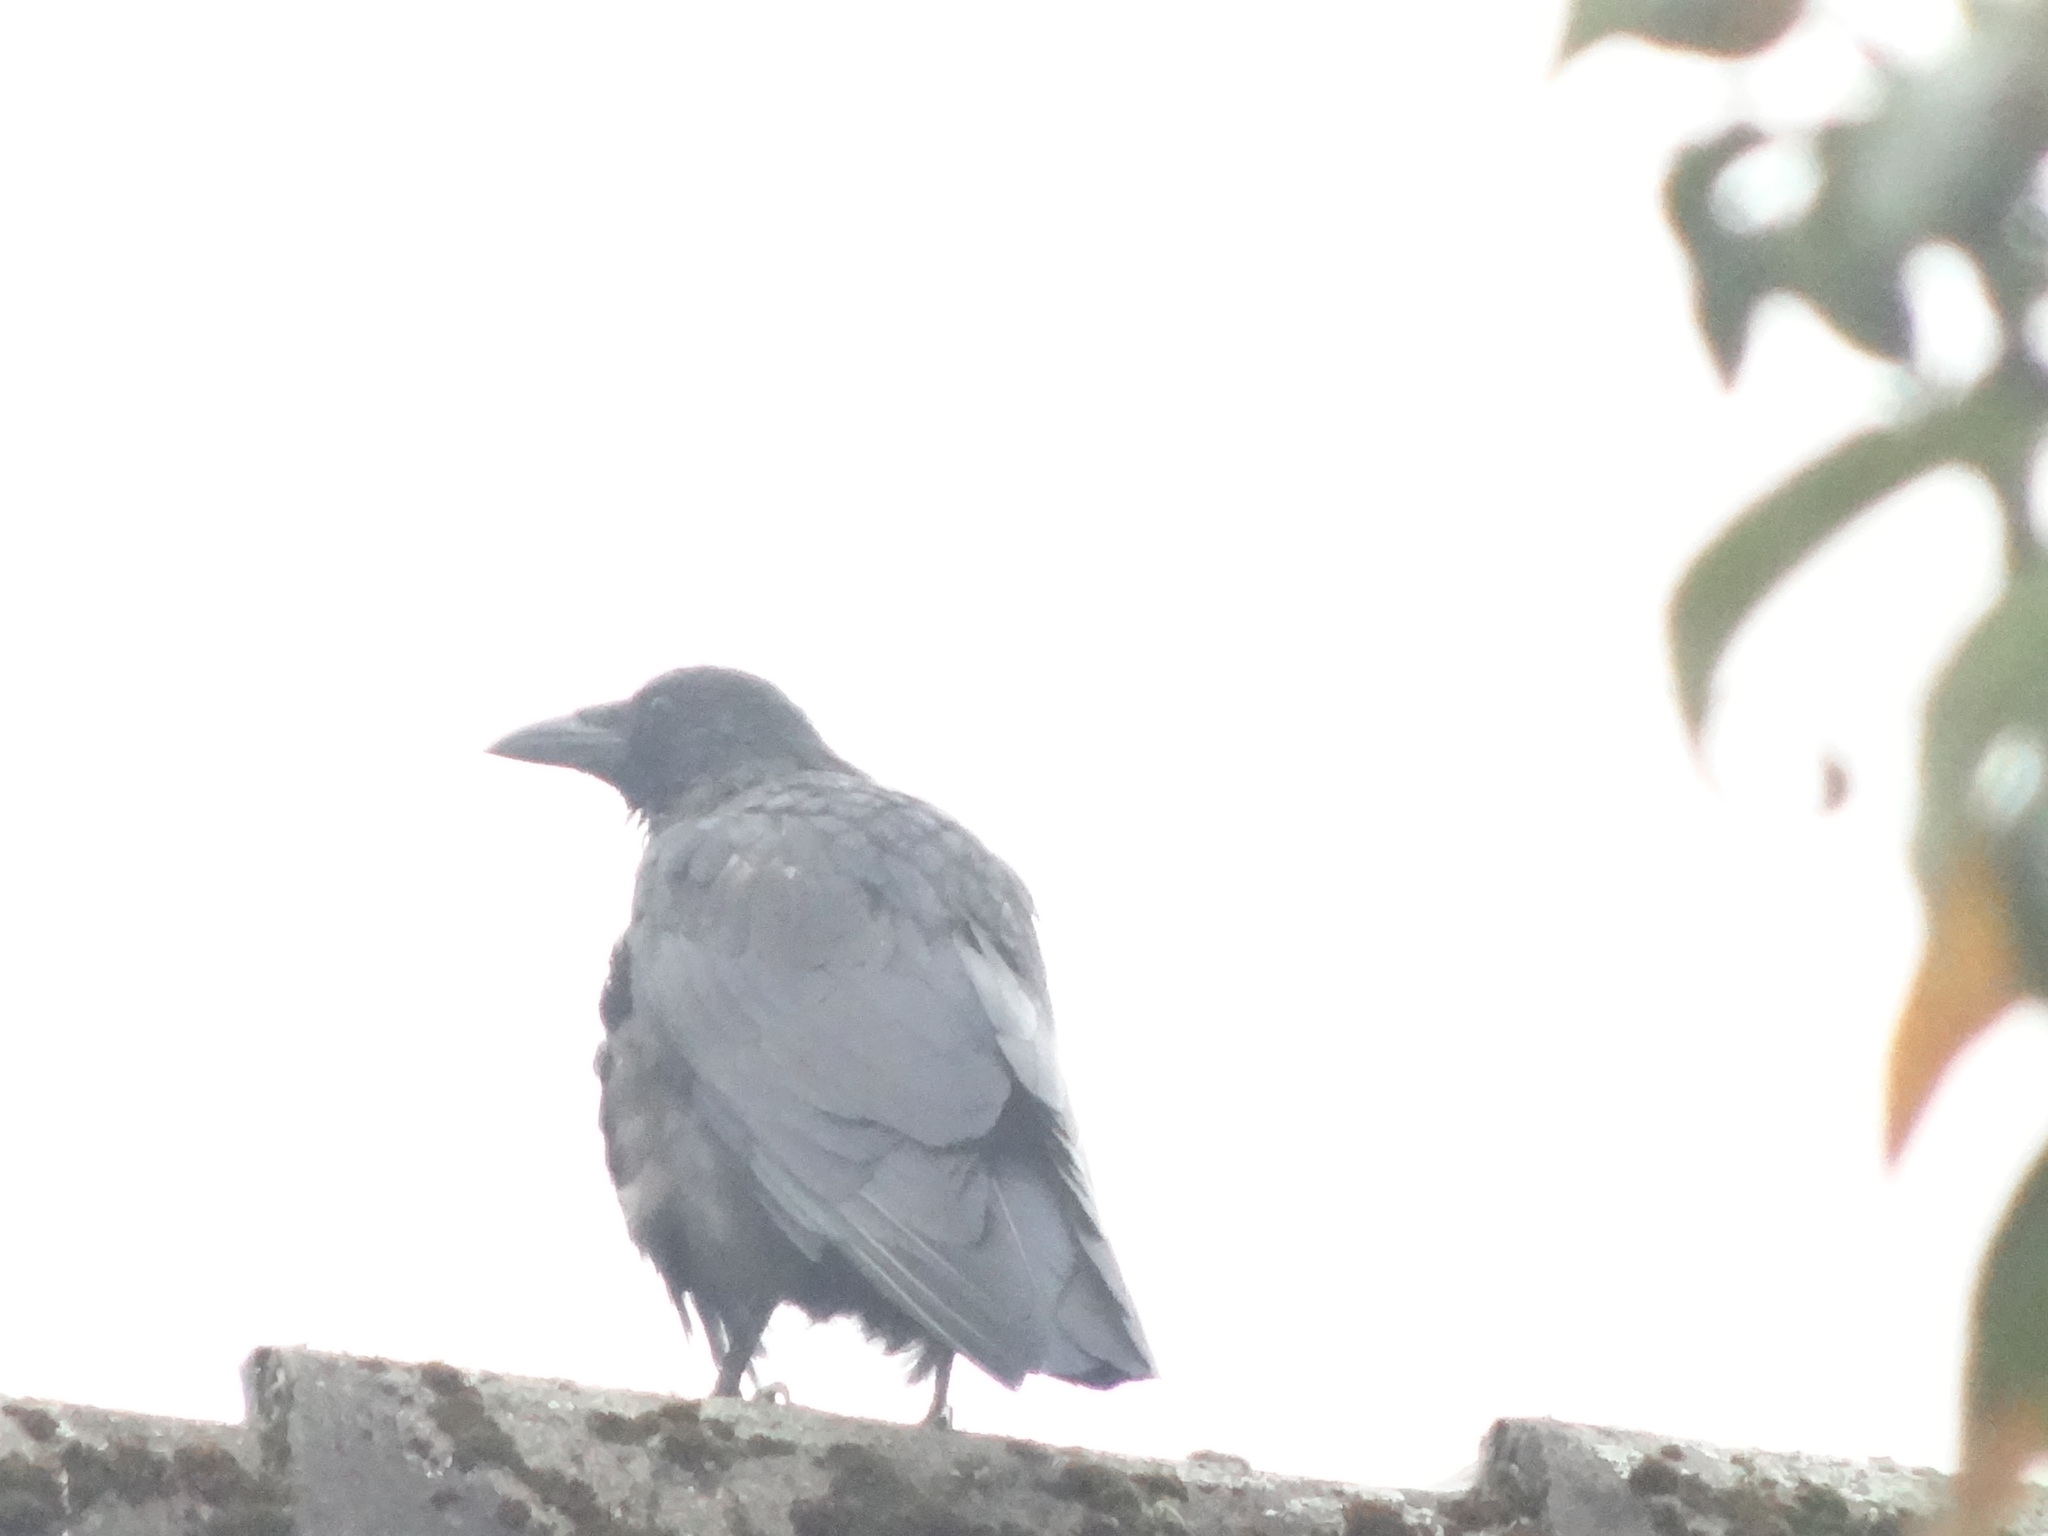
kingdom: Animalia
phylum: Chordata
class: Aves
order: Passeriformes
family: Corvidae
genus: Corvus
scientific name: Corvus corax
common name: Common raven
